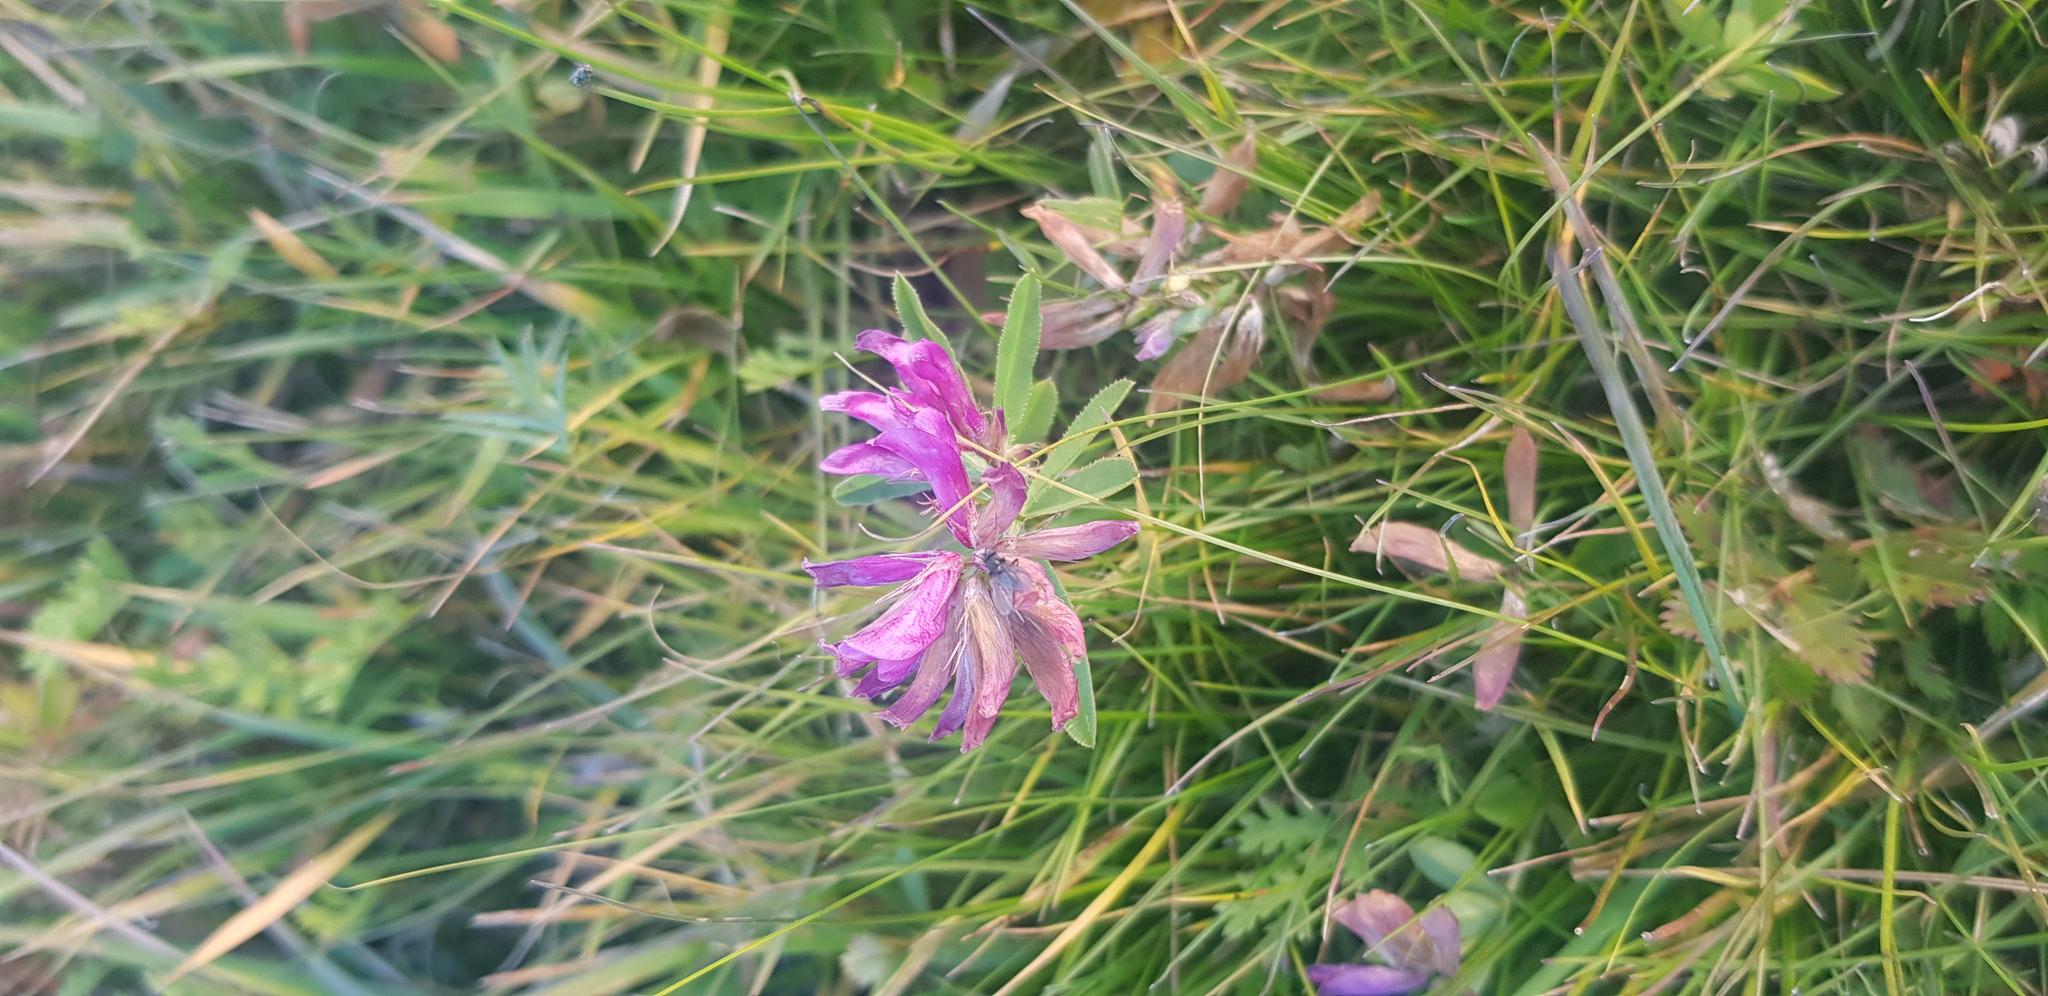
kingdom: Plantae
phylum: Tracheophyta
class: Magnoliopsida
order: Fabales
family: Fabaceae
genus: Trifolium
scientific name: Trifolium lupinaster
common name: Lupine clover
